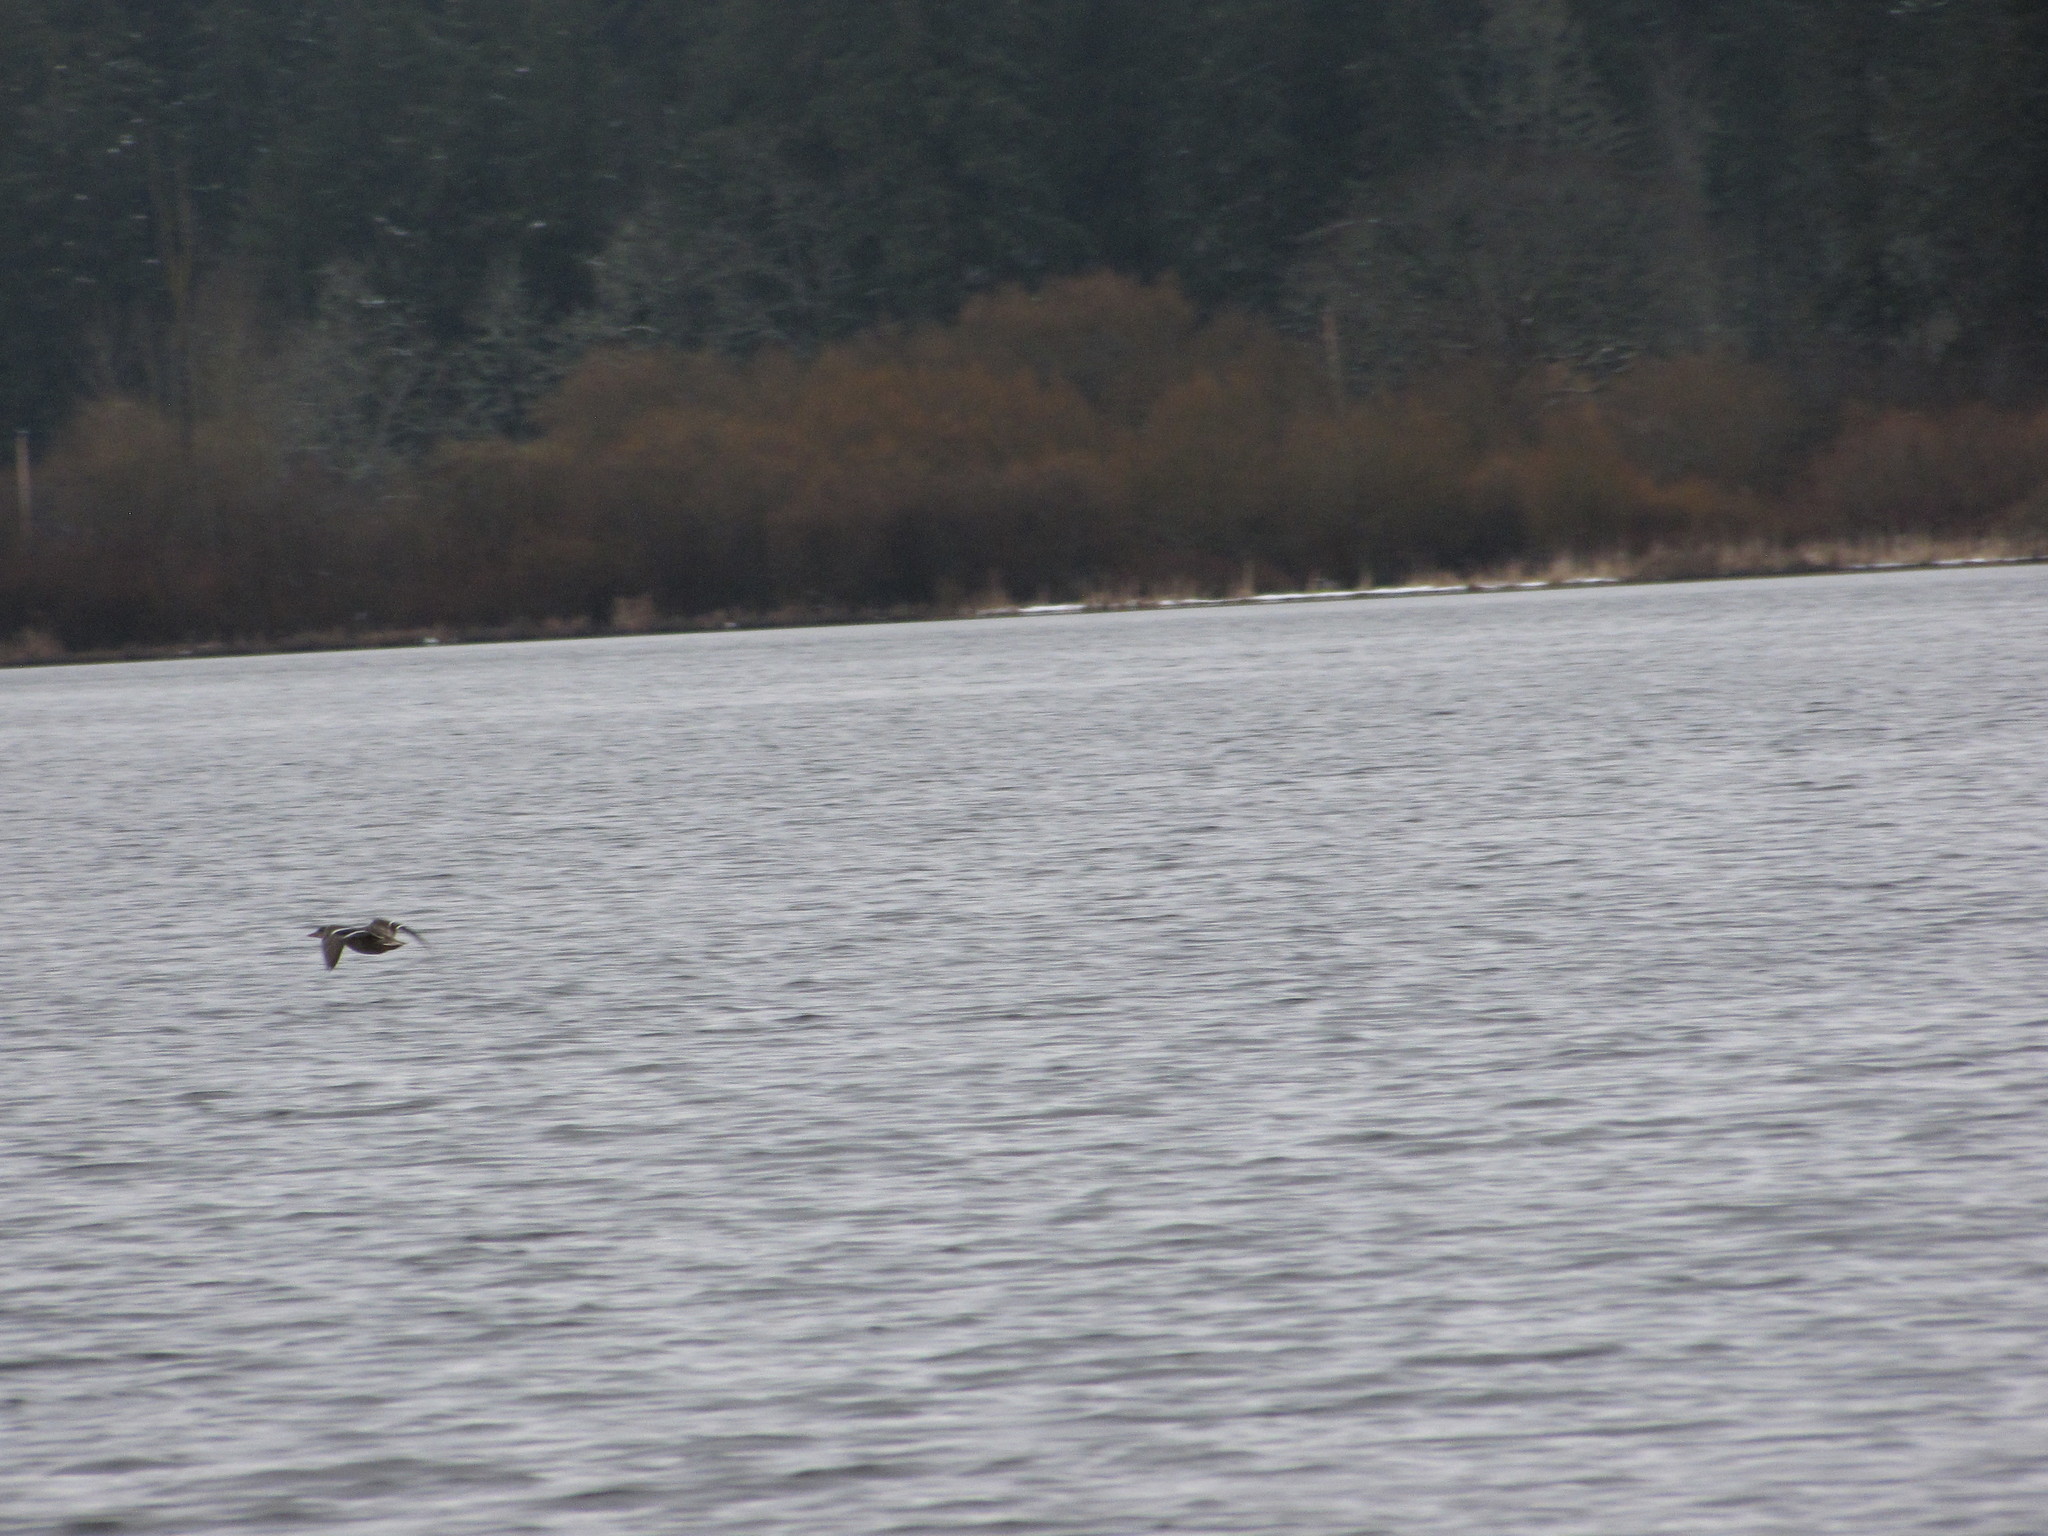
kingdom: Animalia
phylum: Chordata
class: Aves
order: Anseriformes
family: Anatidae
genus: Anas
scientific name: Anas platyrhynchos
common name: Mallard
